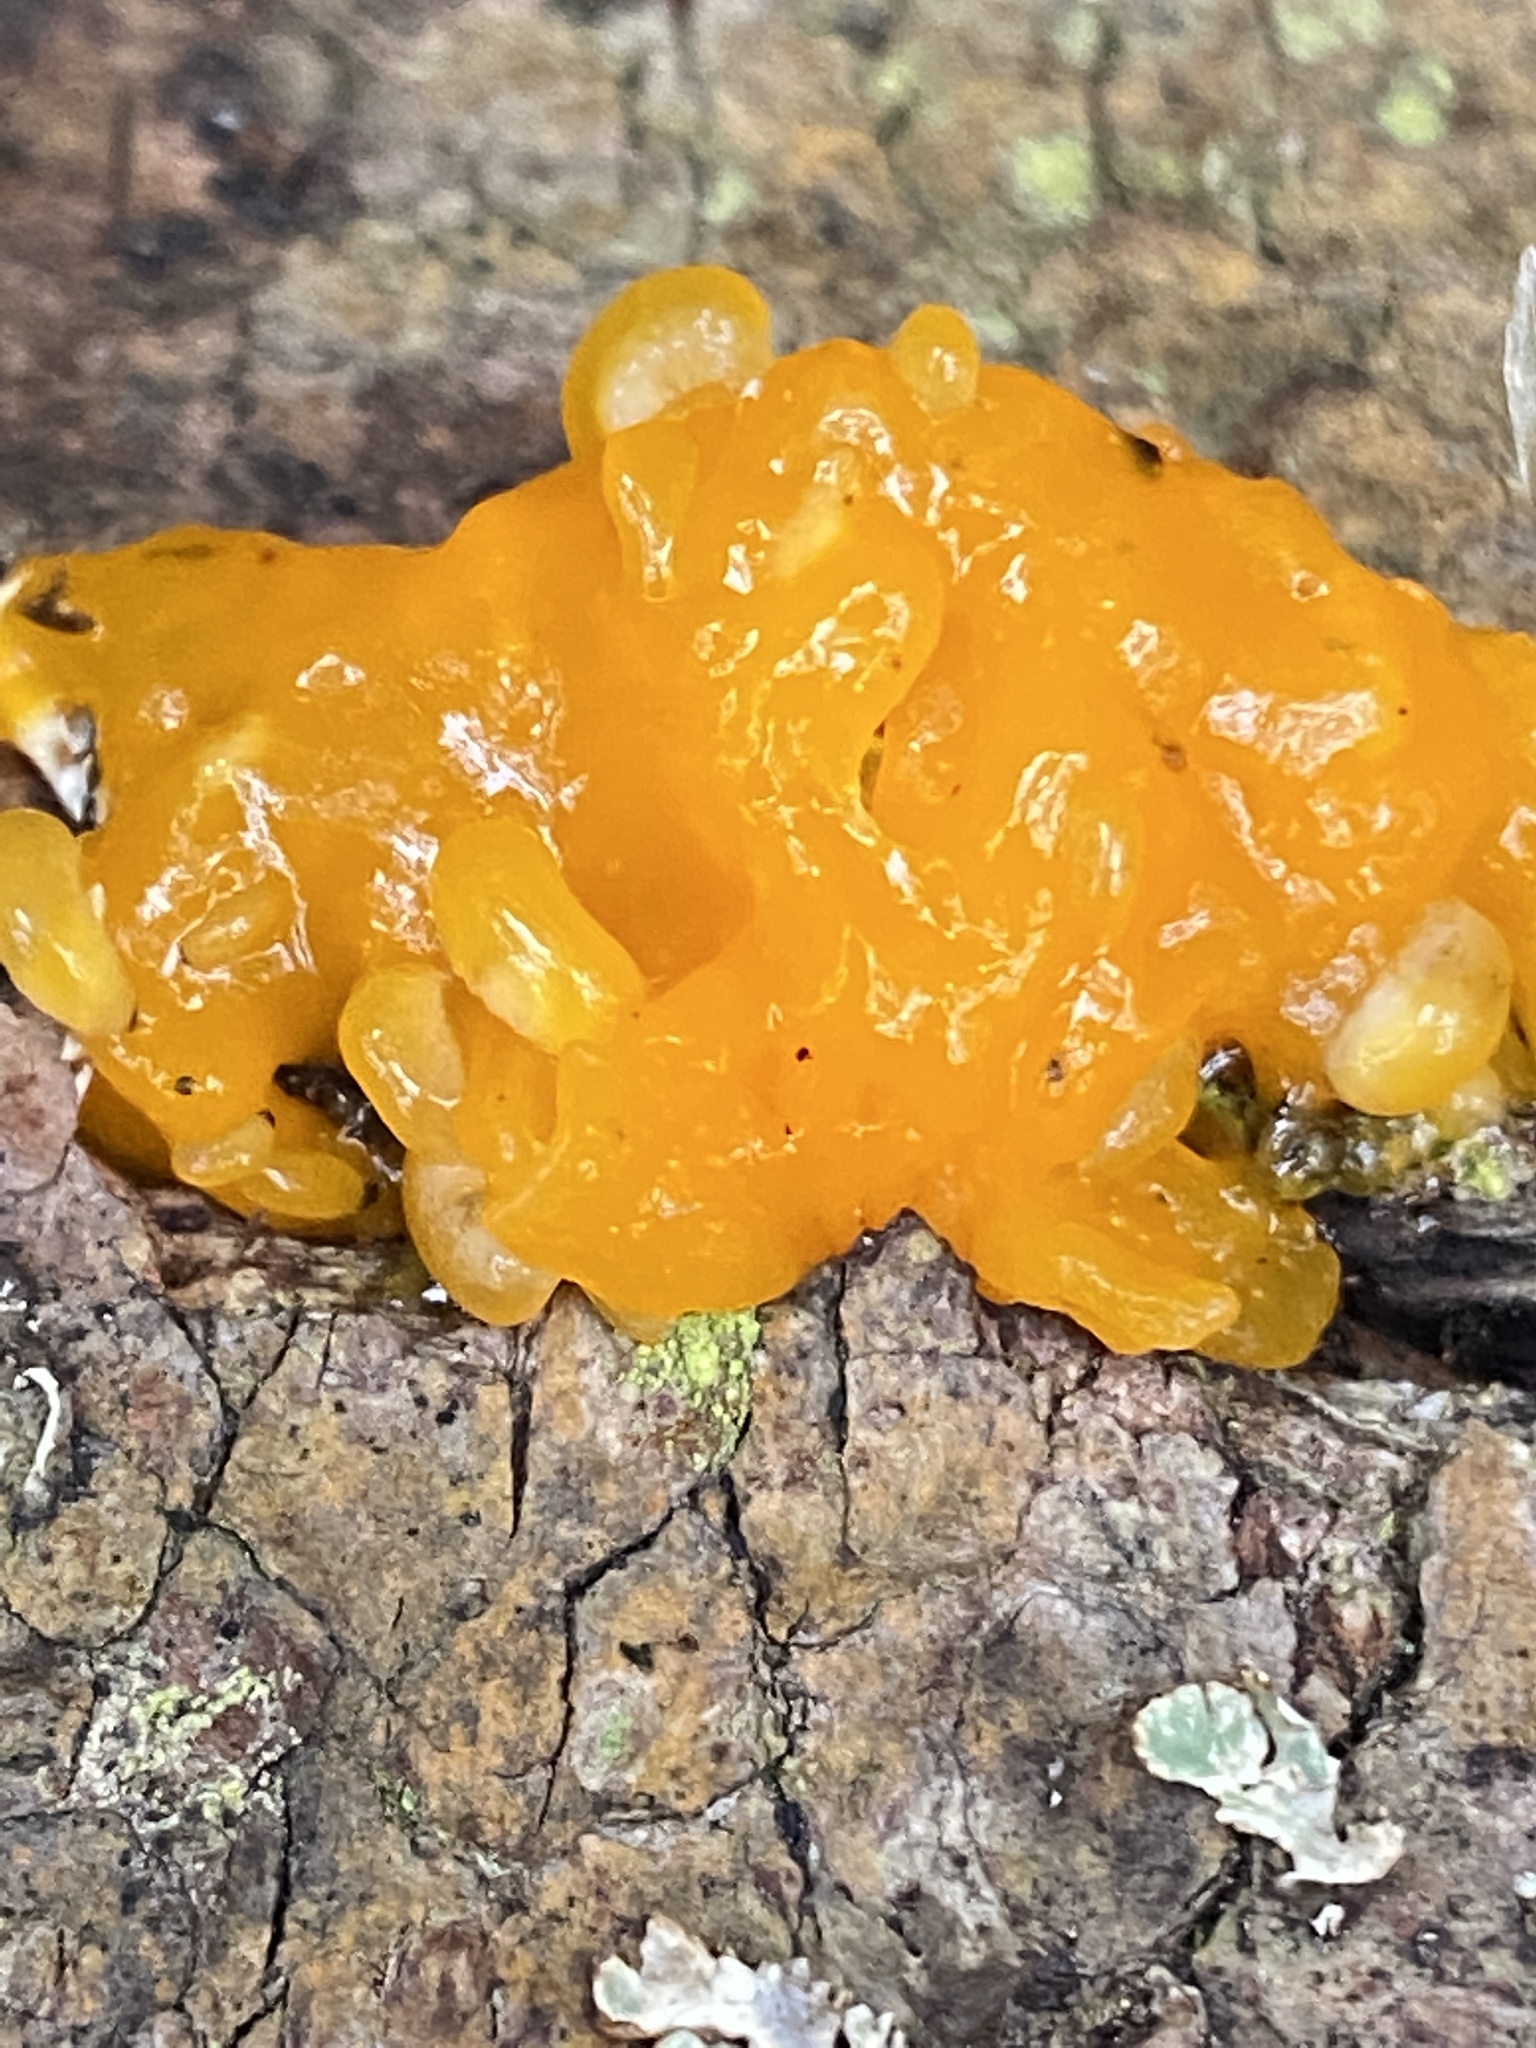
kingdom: Fungi
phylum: Basidiomycota
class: Tremellomycetes
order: Tremellales
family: Tremellaceae
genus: Tremella
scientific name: Tremella mesenterica
